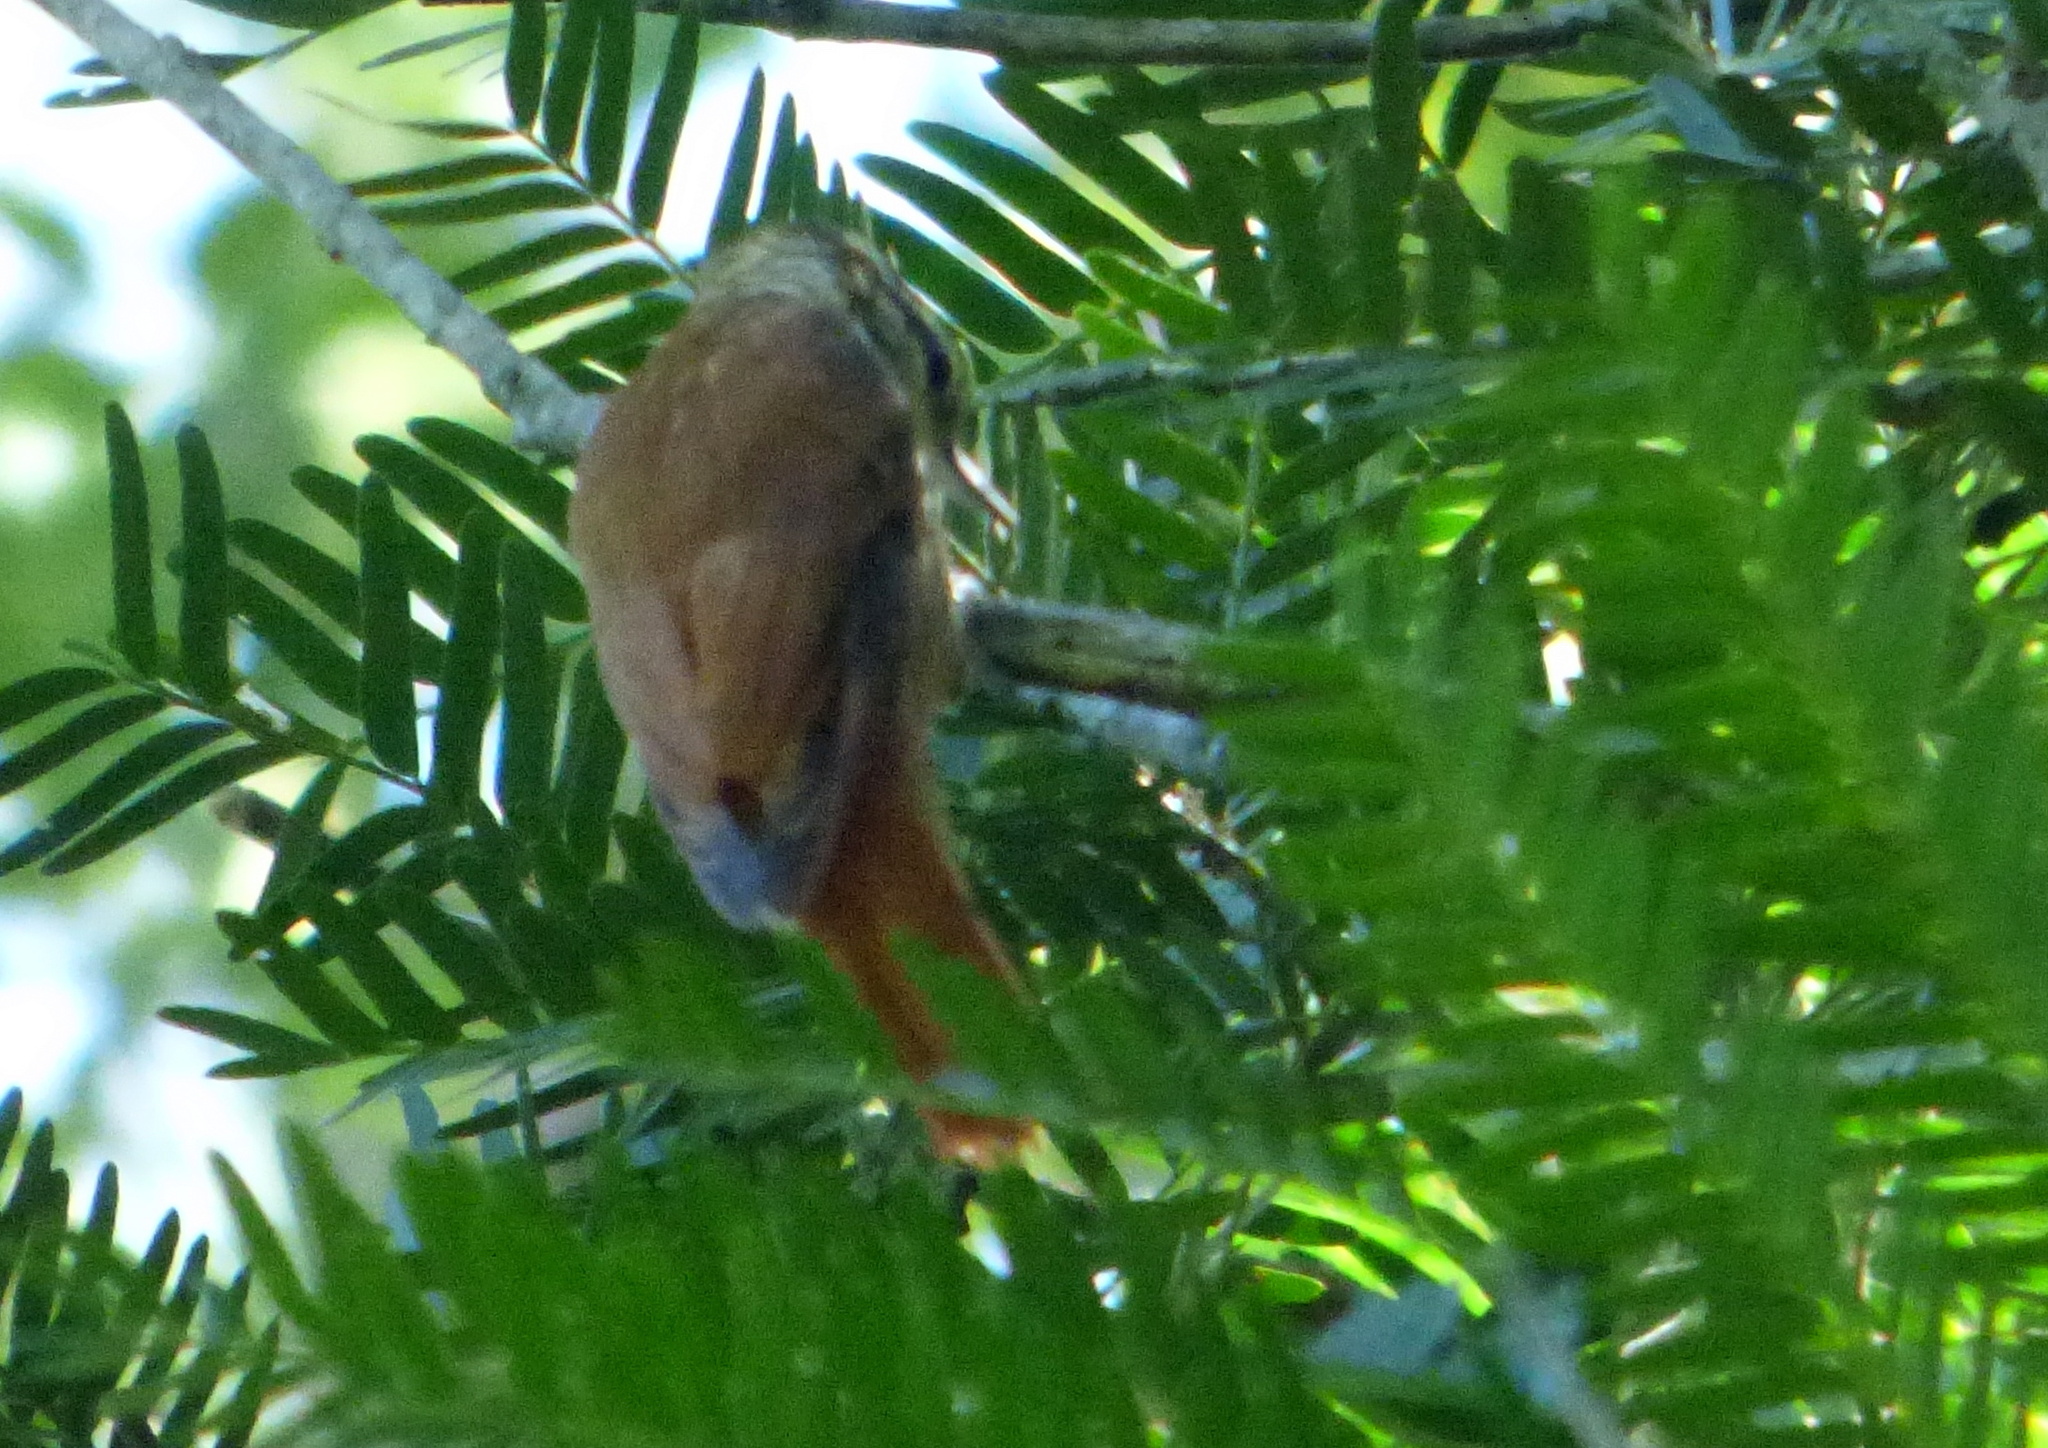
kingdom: Animalia
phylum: Chordata
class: Aves
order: Passeriformes
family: Furnariidae
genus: Xenops
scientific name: Xenops rutilans
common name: Streaked xenops
